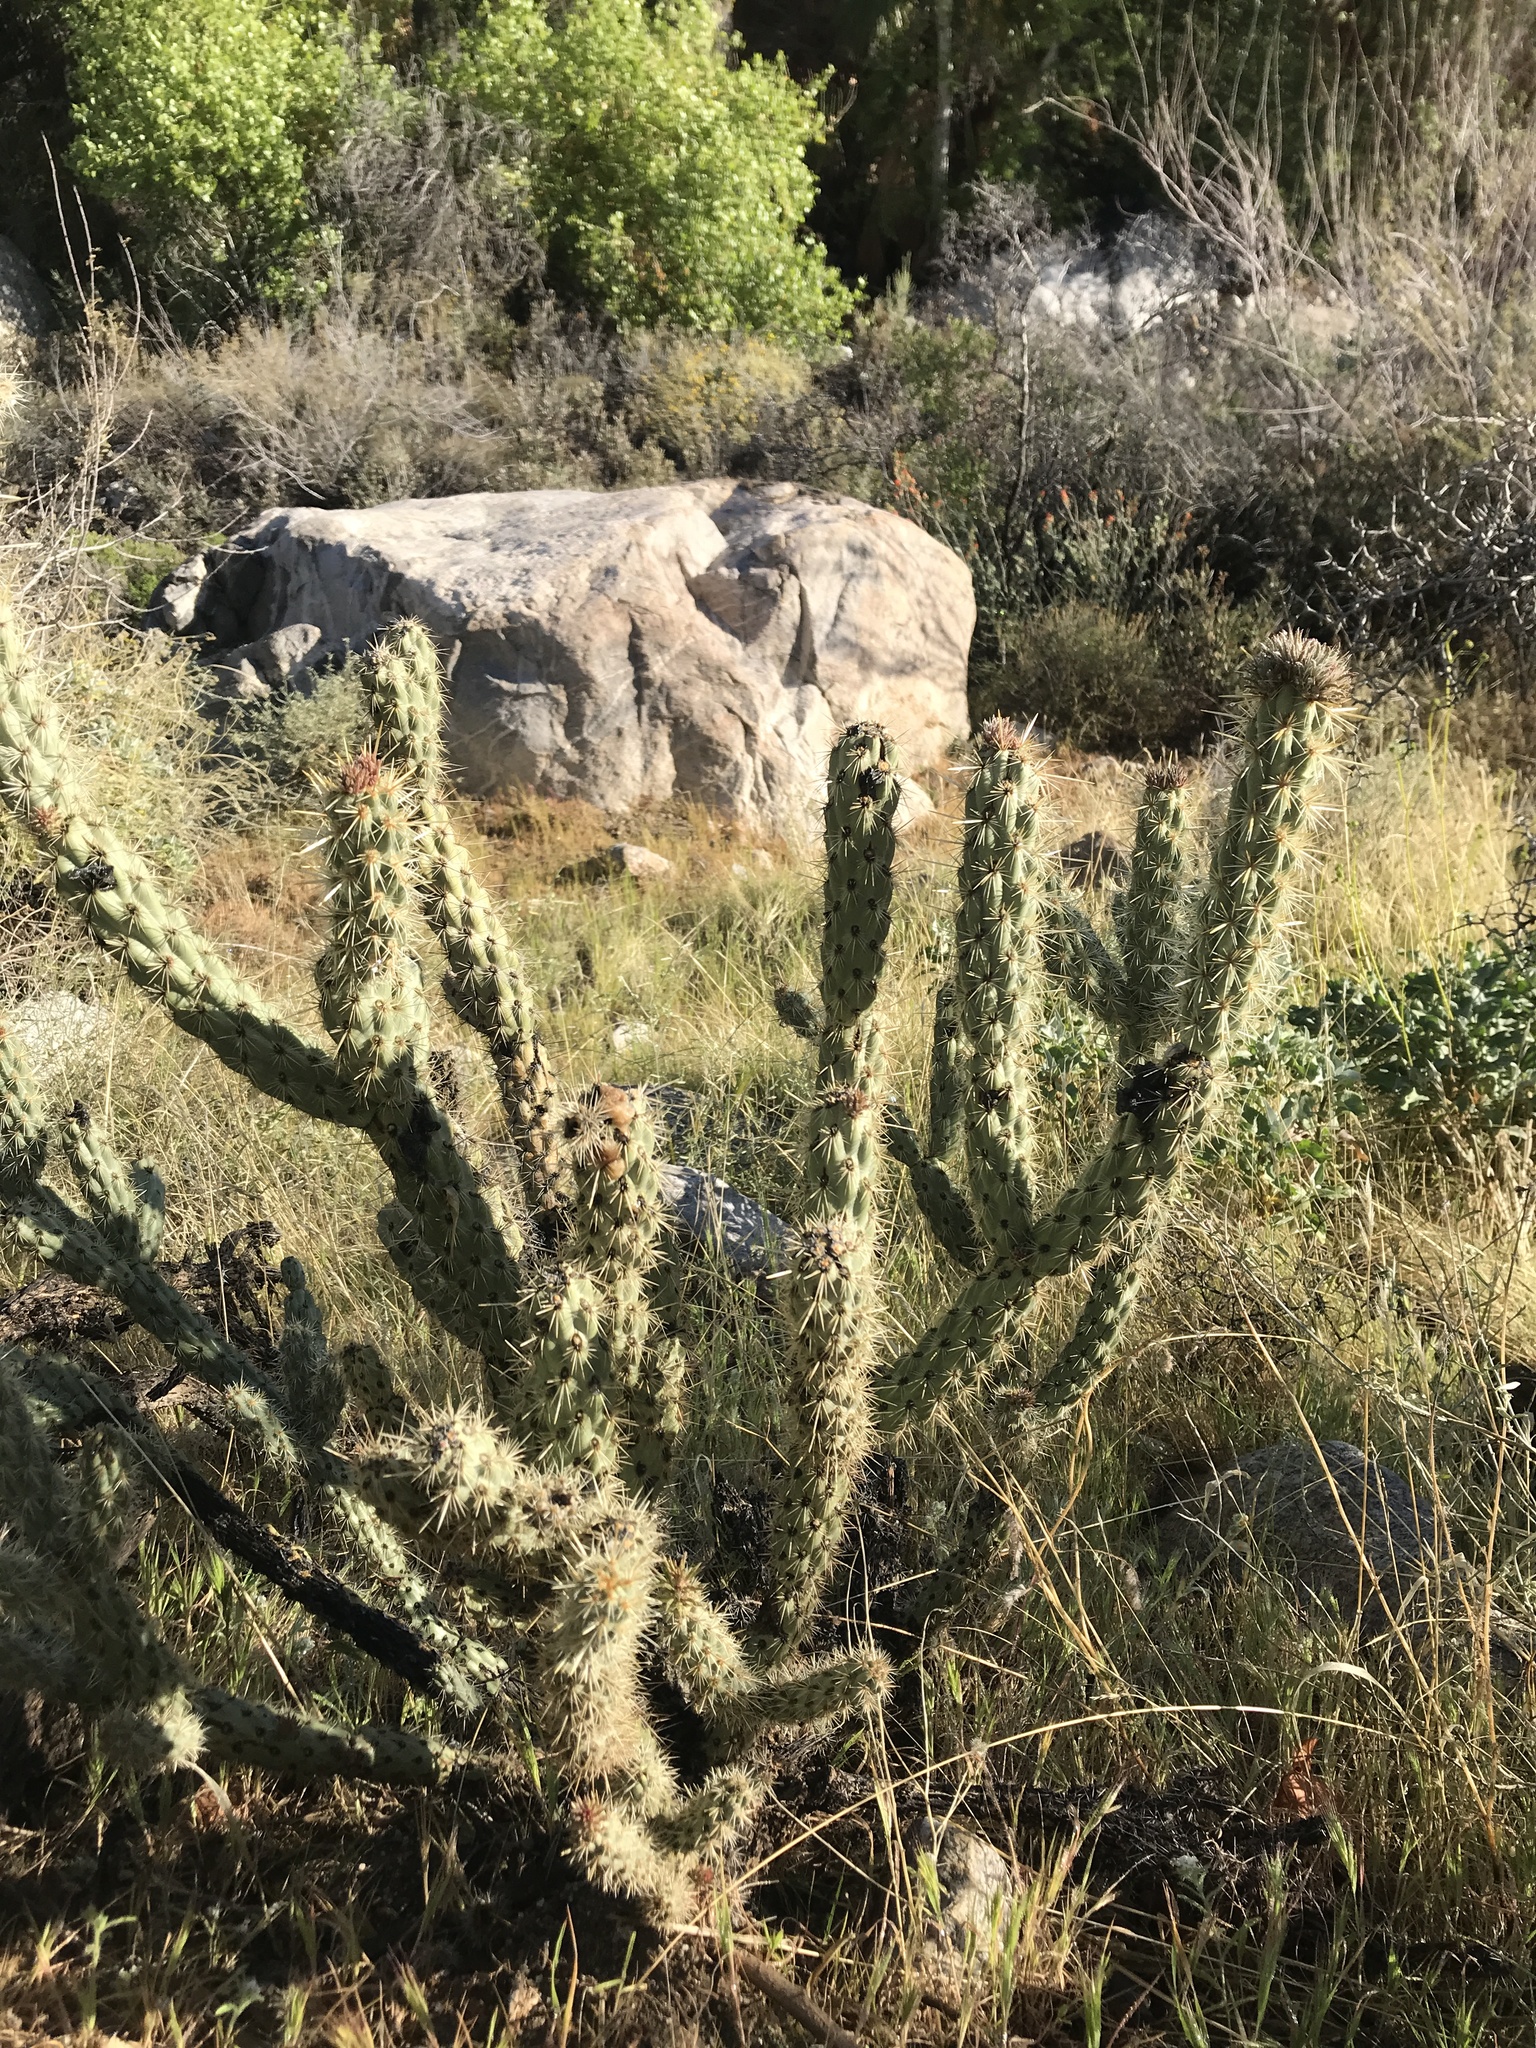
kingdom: Plantae
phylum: Tracheophyta
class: Magnoliopsida
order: Caryophyllales
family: Cactaceae
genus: Cylindropuntia
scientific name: Cylindropuntia ganderi
